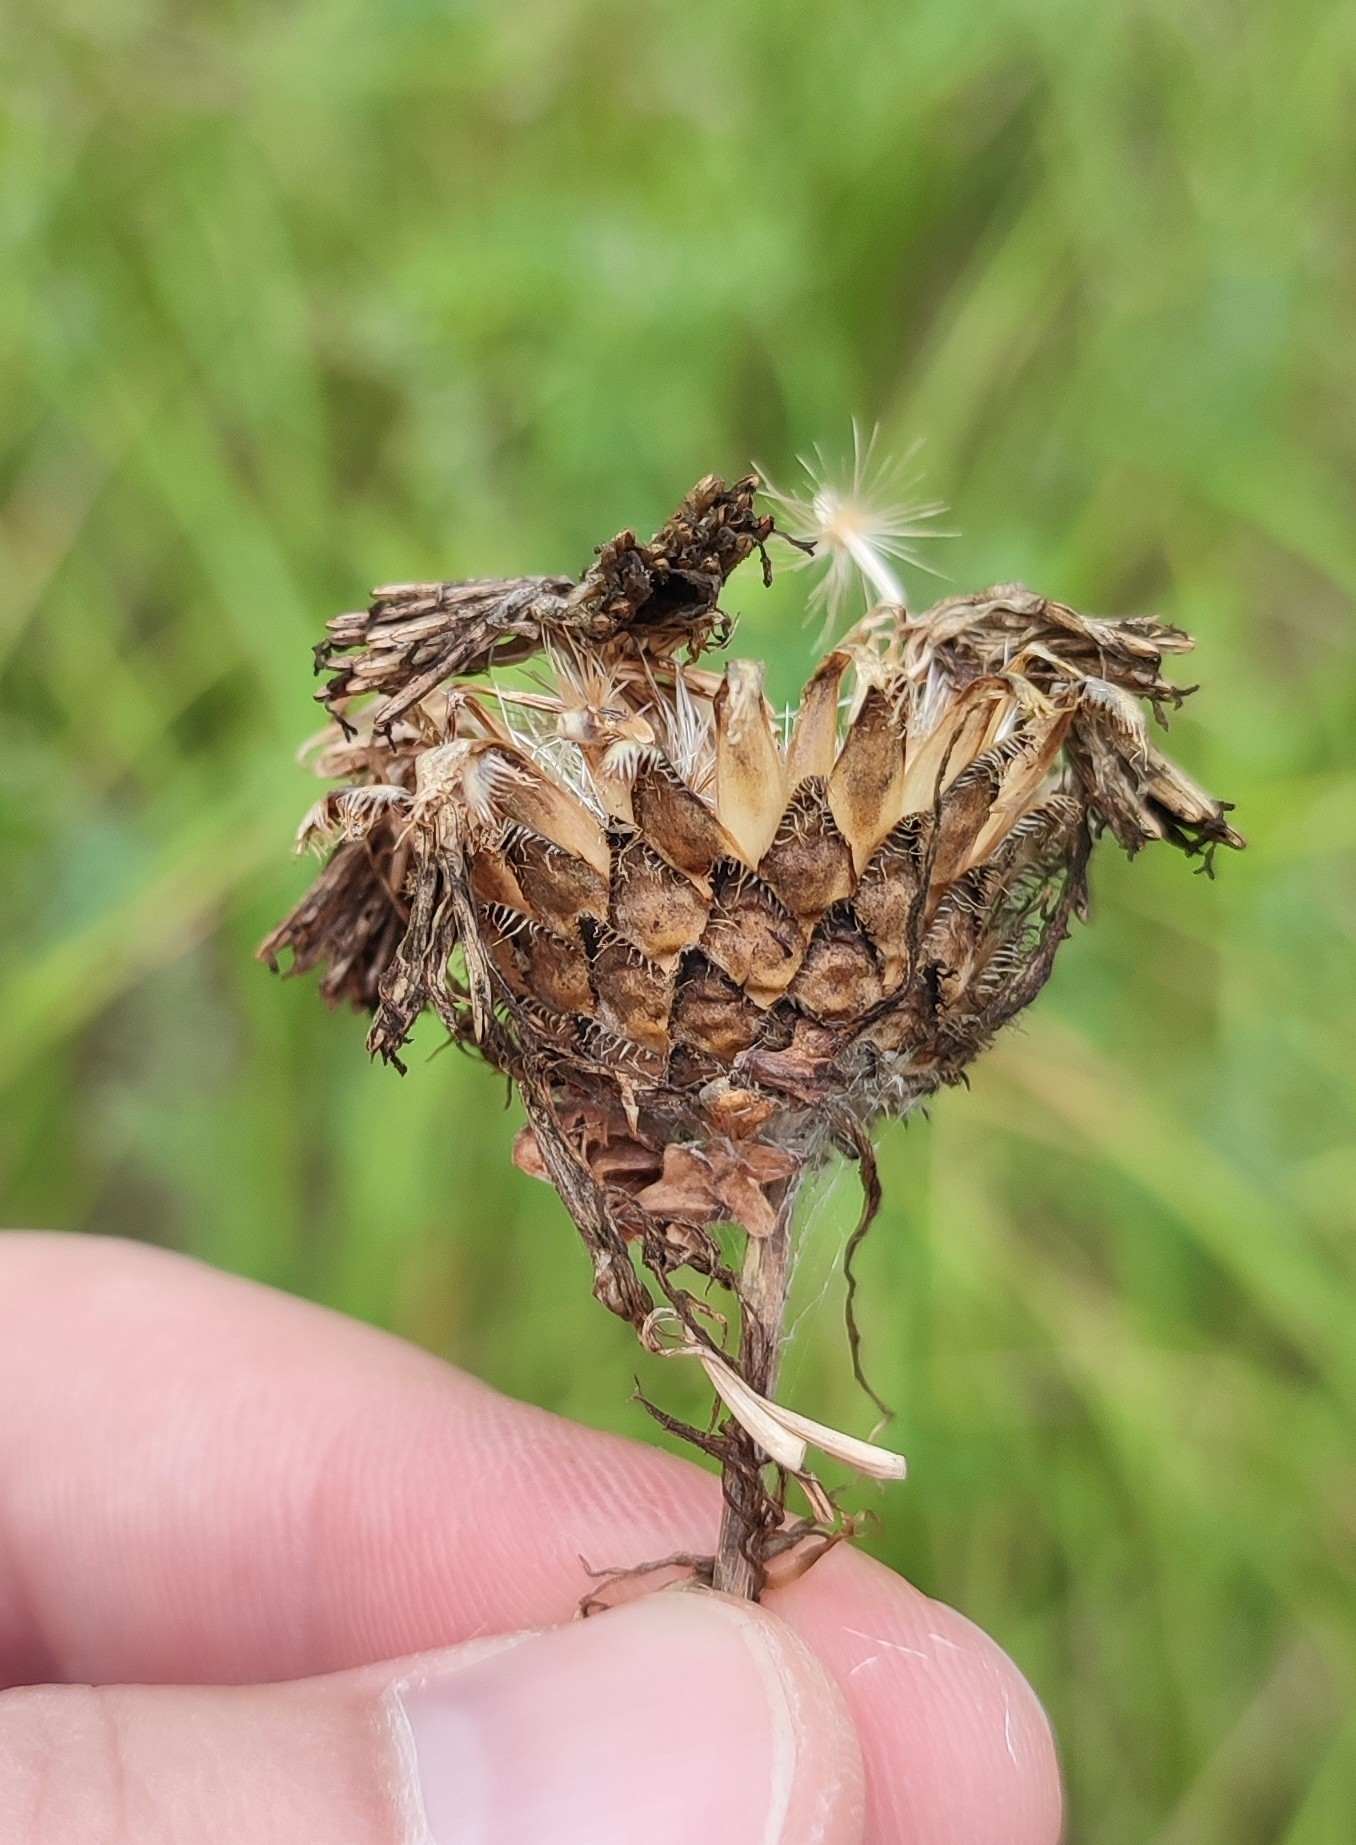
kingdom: Plantae
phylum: Tracheophyta
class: Magnoliopsida
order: Asterales
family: Asteraceae
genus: Centaurea
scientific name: Centaurea scabiosa
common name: Greater knapweed
